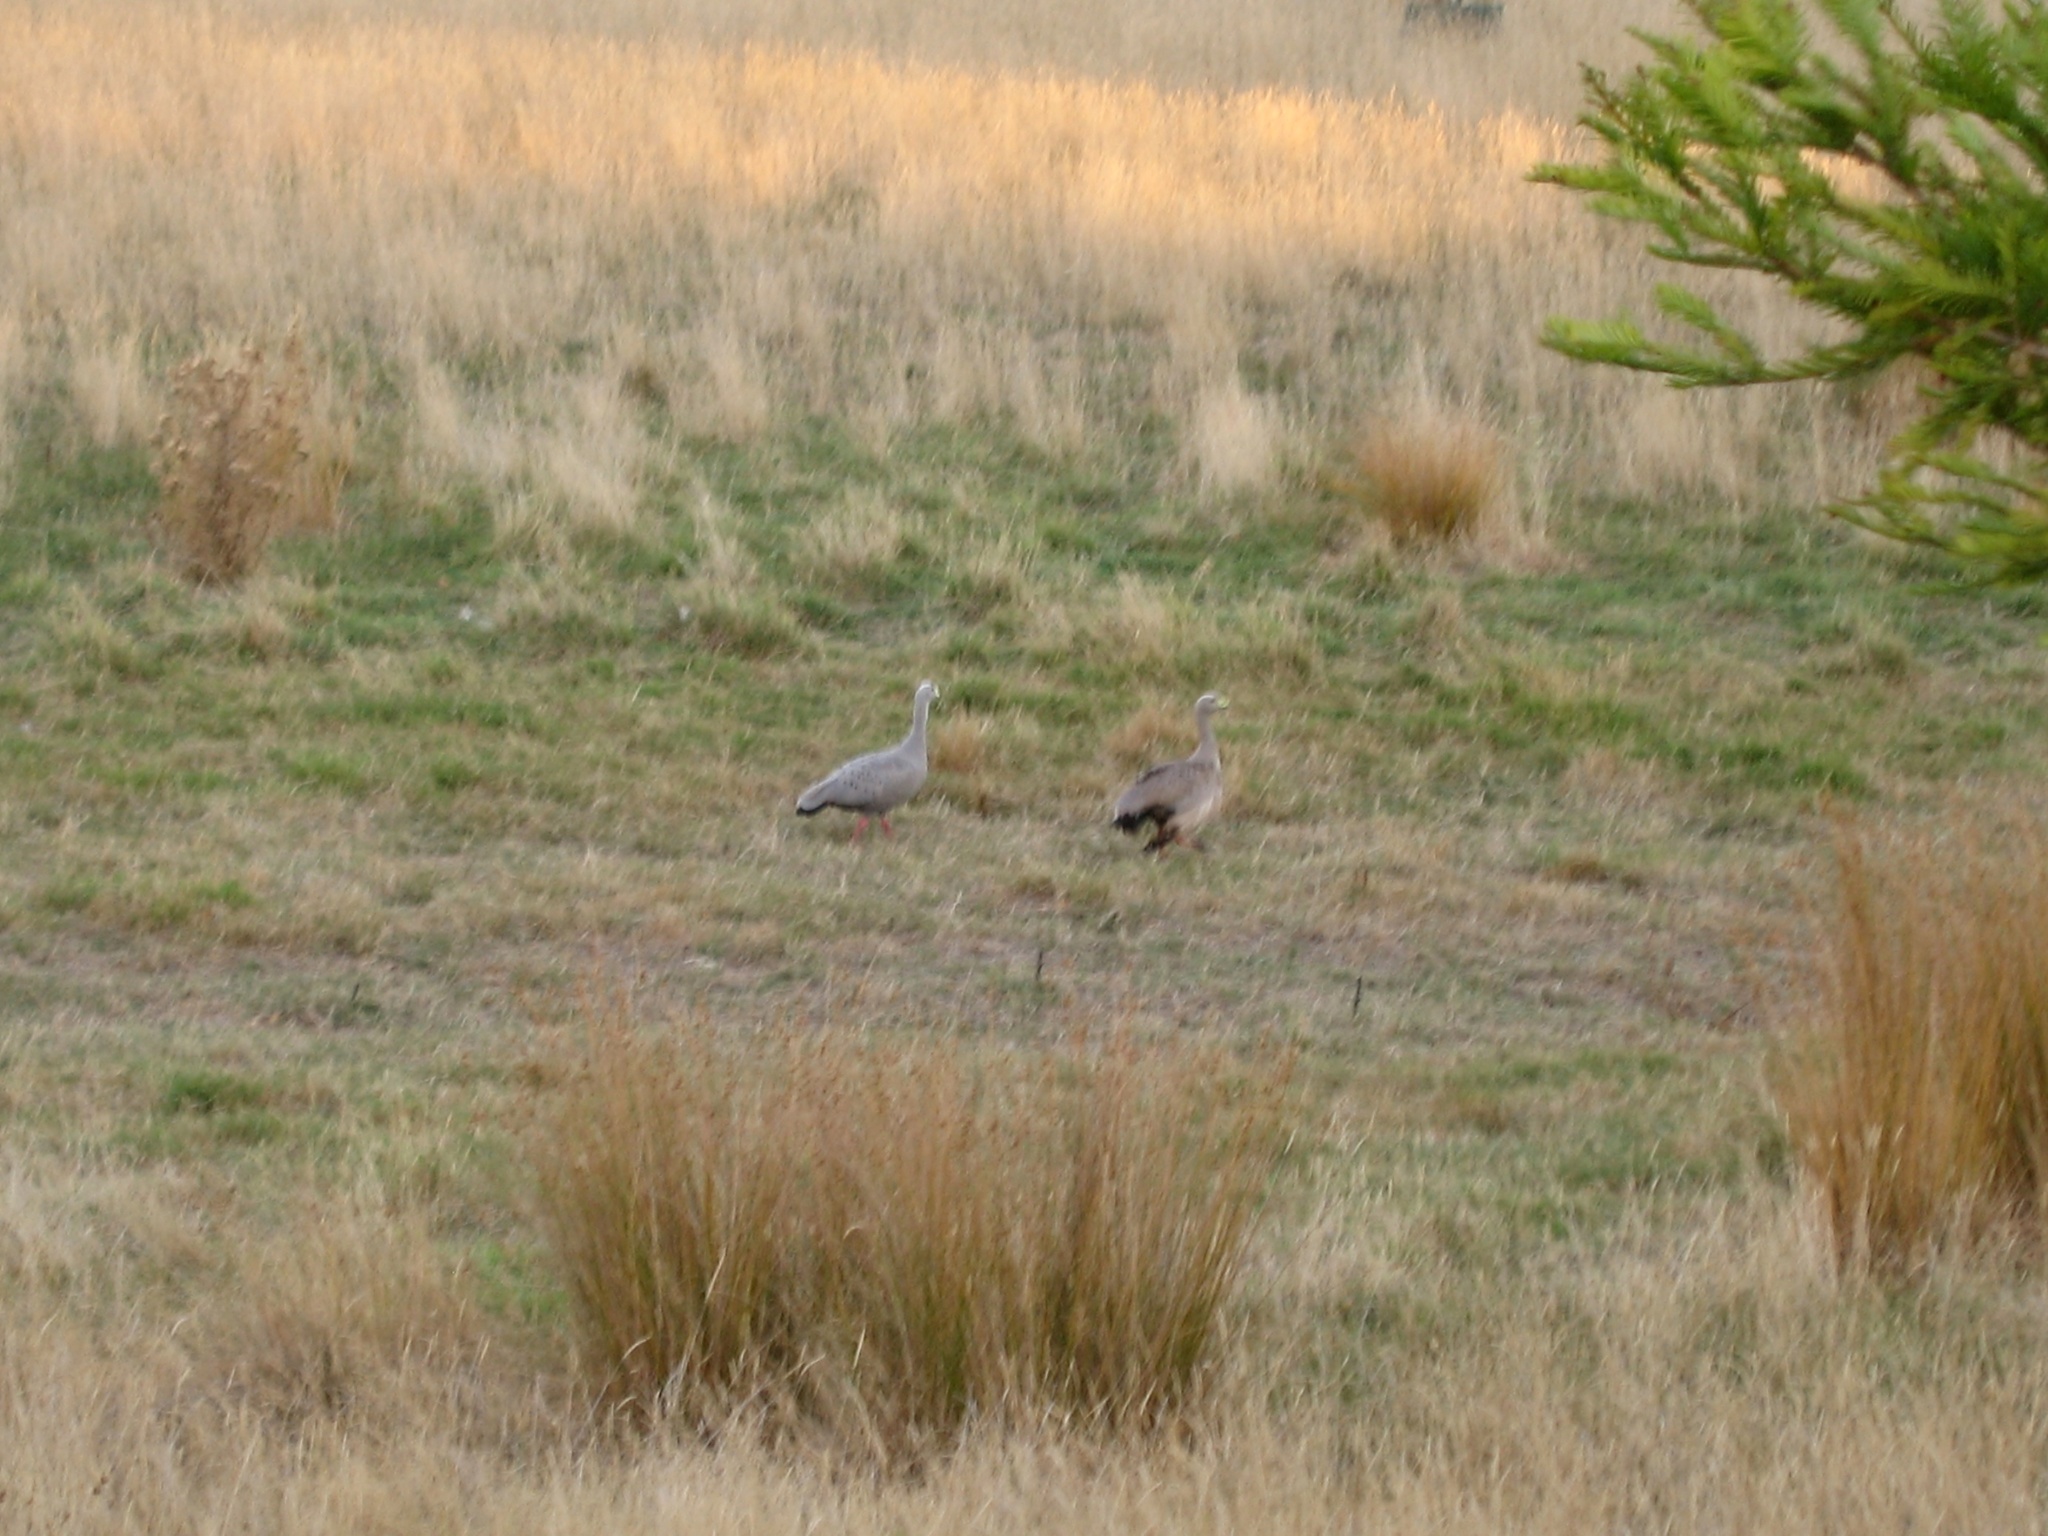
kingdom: Animalia
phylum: Chordata
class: Aves
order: Anseriformes
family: Anatidae
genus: Cereopsis
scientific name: Cereopsis novaehollandiae
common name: Cape barren goose
